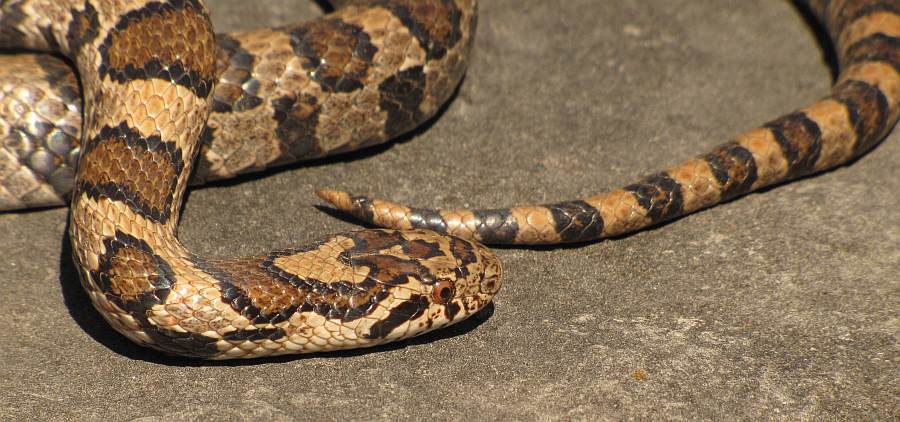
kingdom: Animalia
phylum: Chordata
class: Squamata
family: Colubridae
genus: Lampropeltis
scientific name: Lampropeltis triangulum
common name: Eastern milksnake
